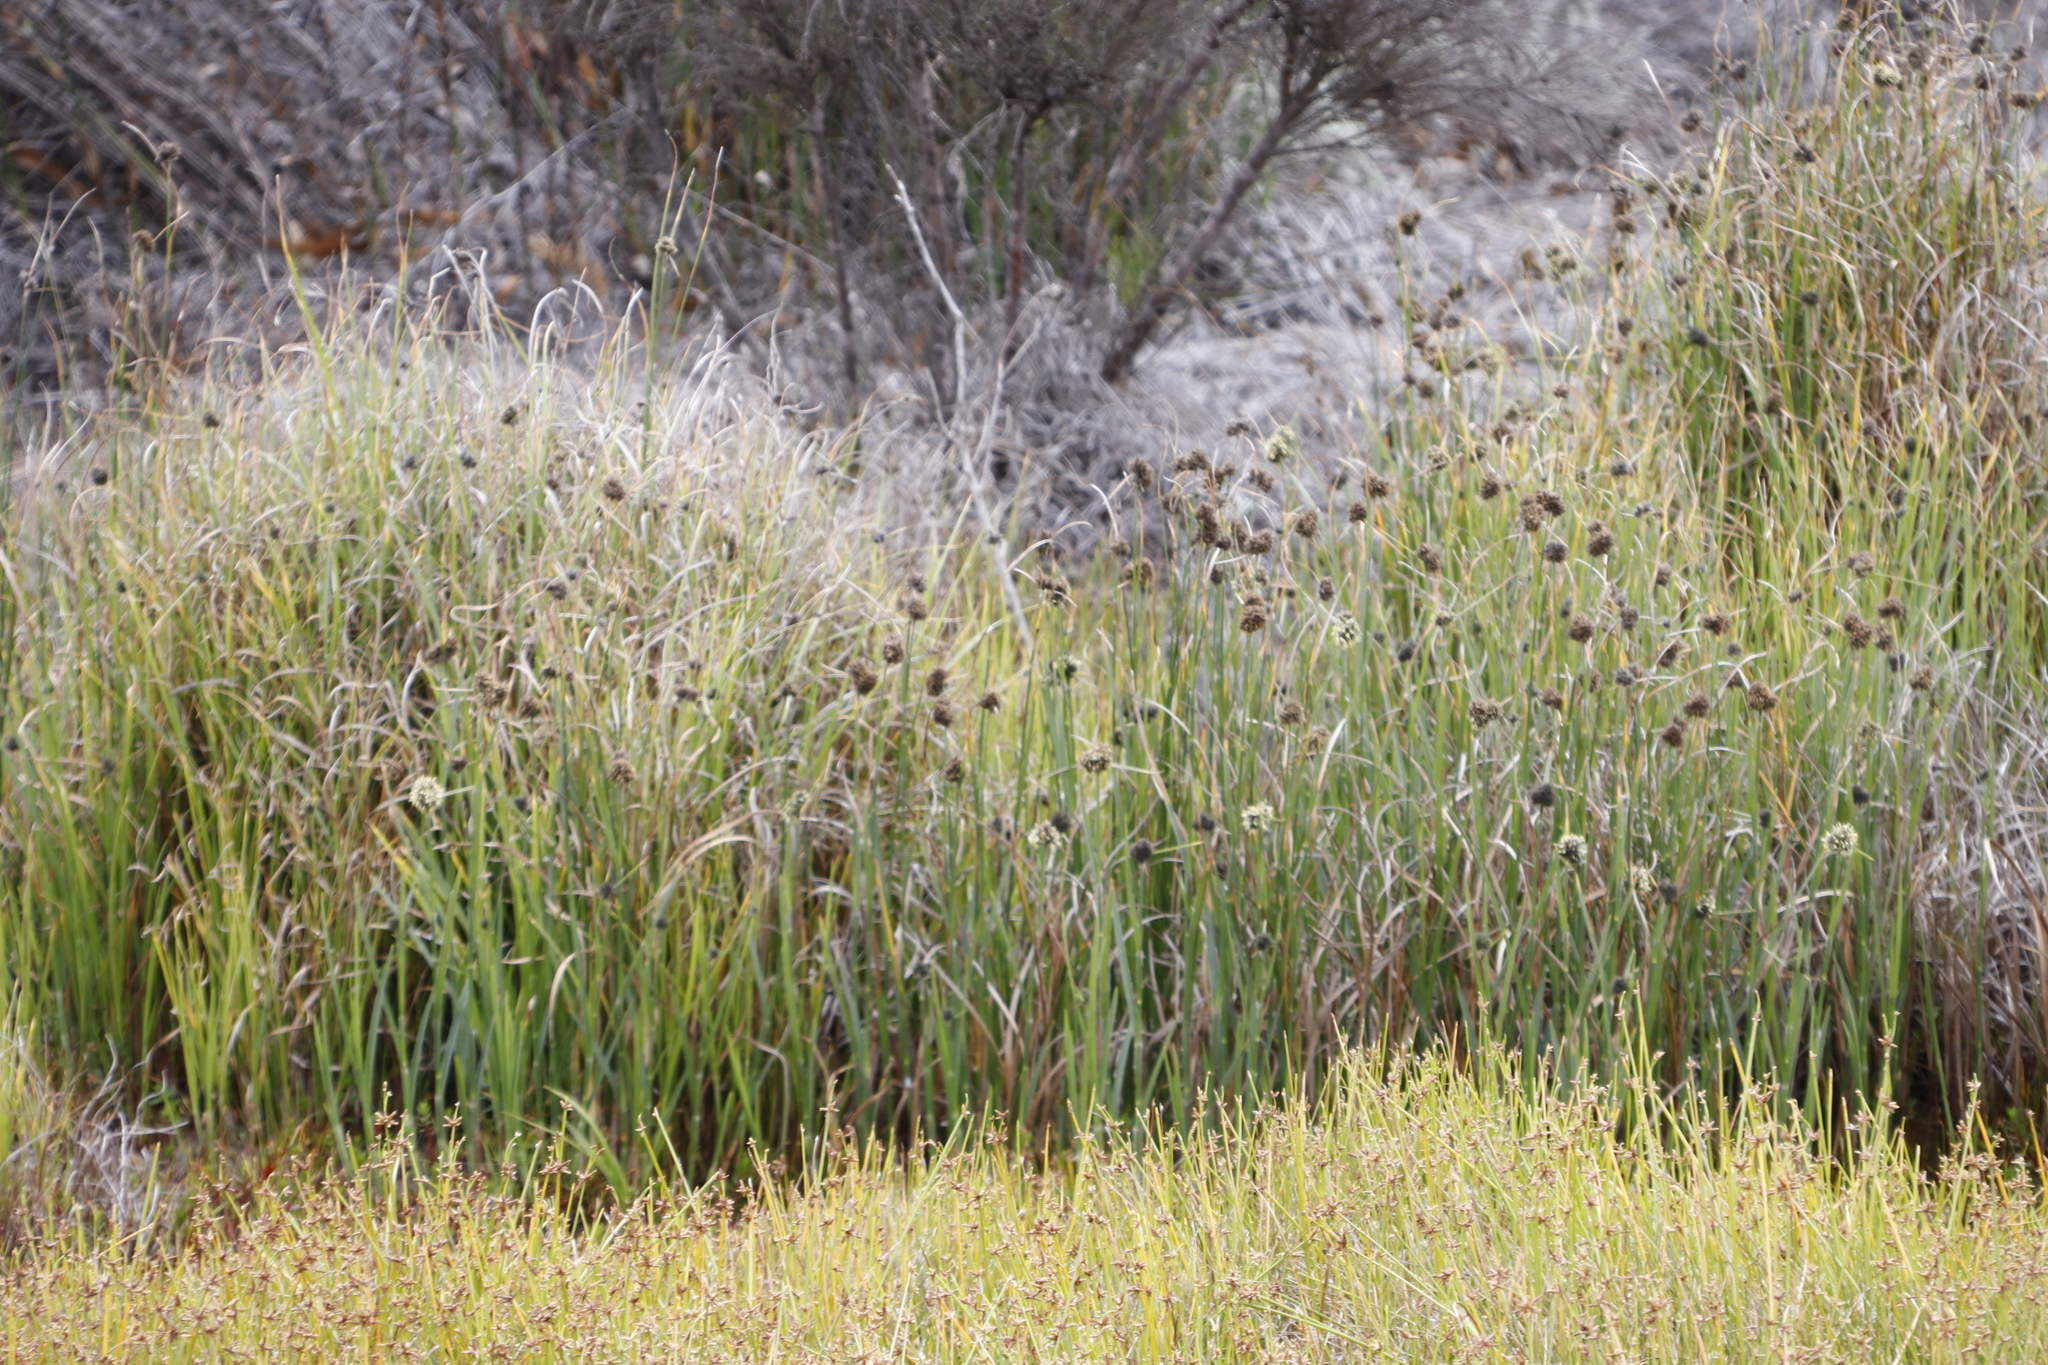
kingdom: Plantae
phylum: Tracheophyta
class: Liliopsida
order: Poales
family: Cyperaceae
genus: Fuirena
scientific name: Fuirena hirsuta
